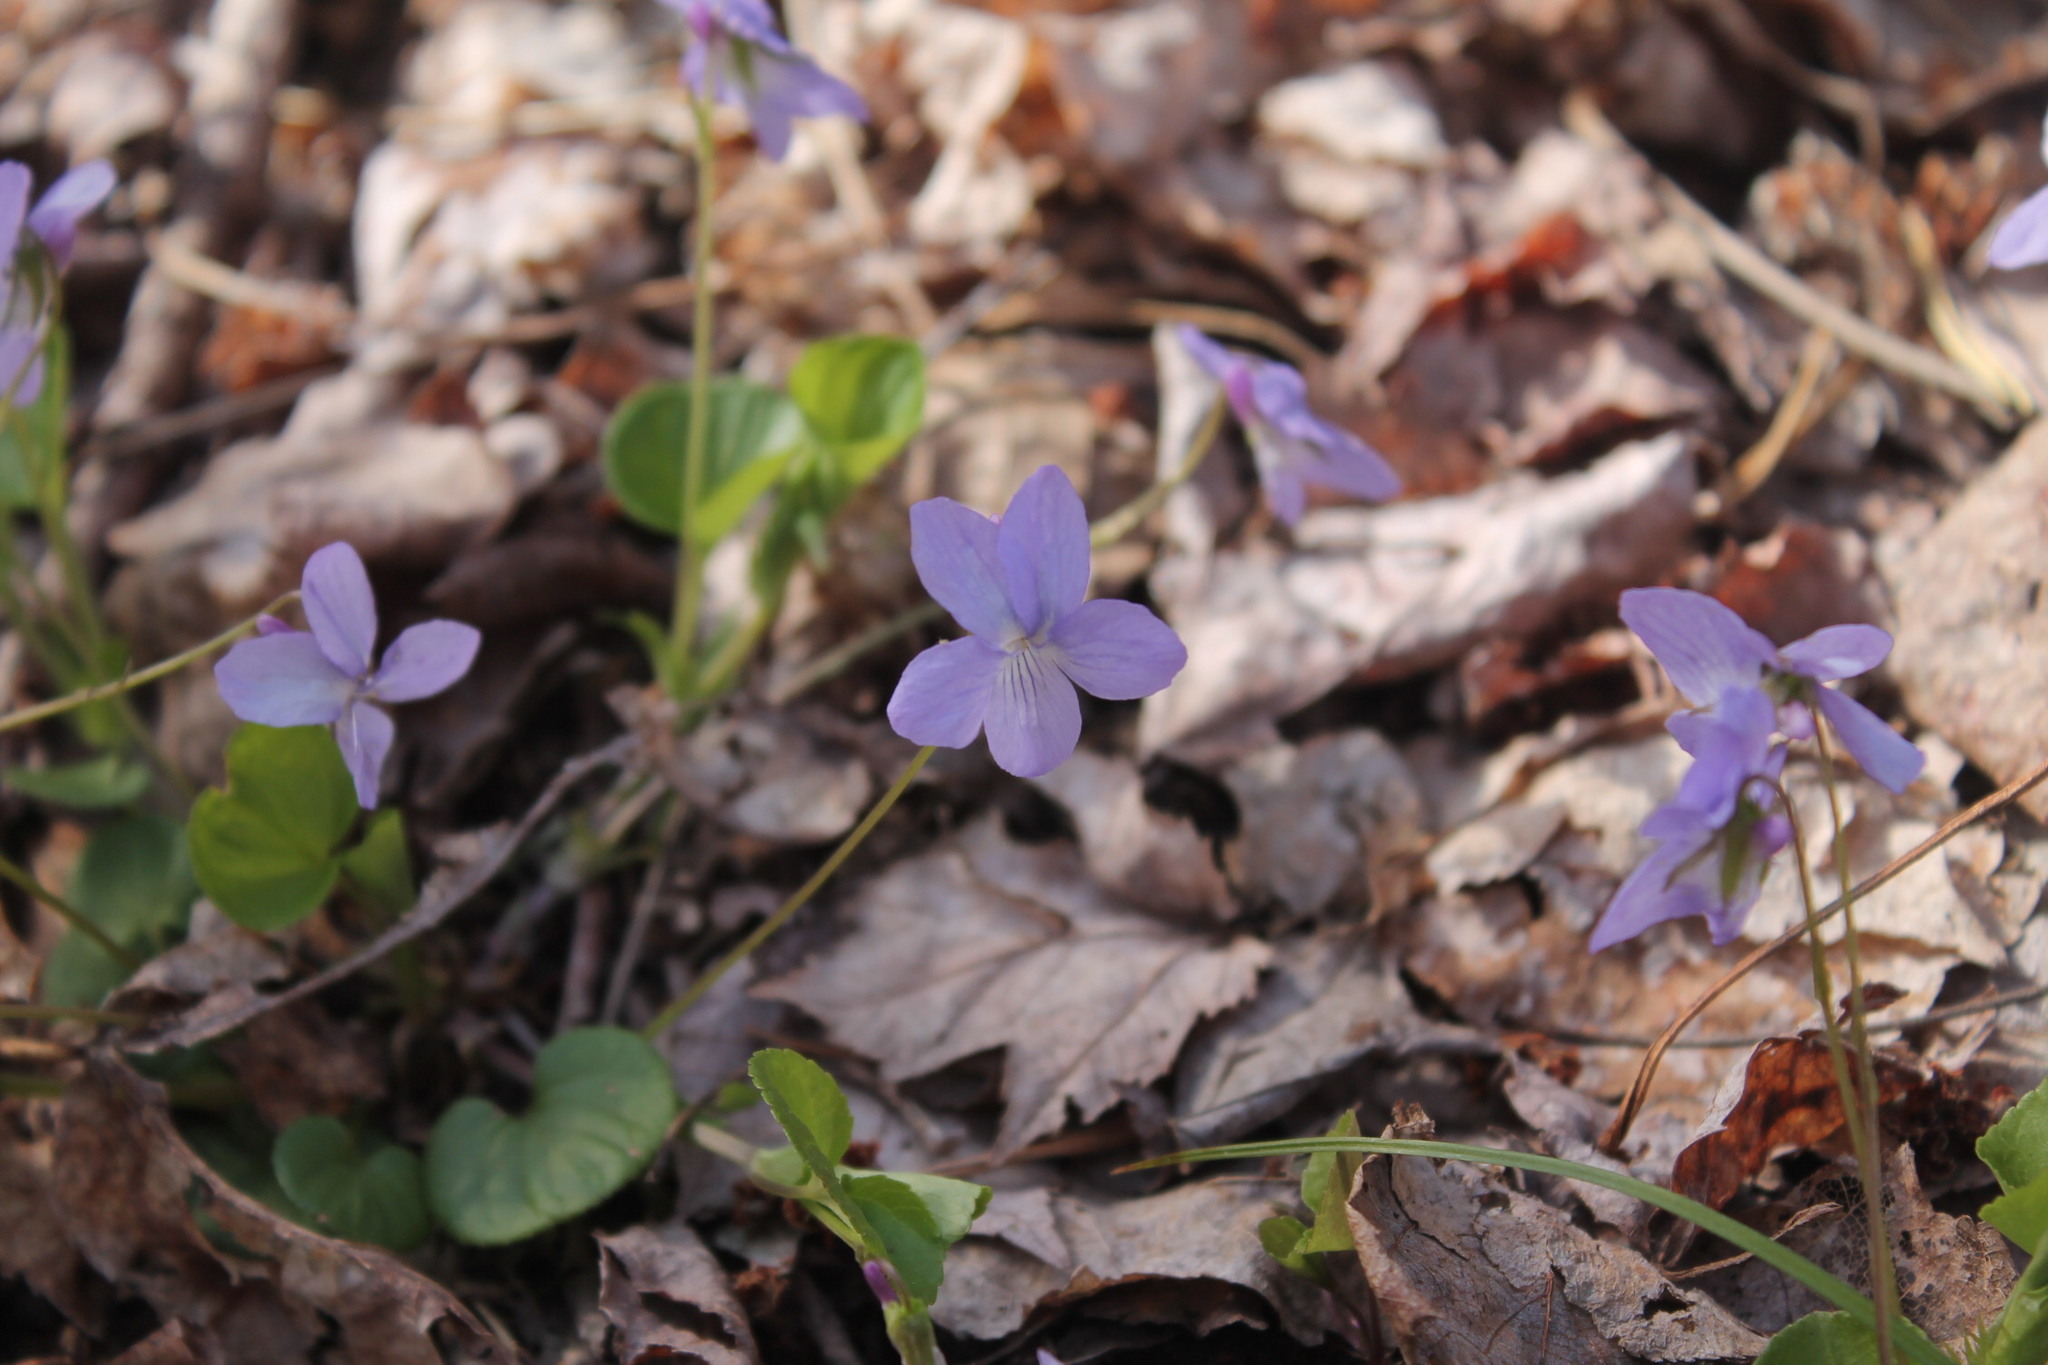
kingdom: Plantae
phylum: Tracheophyta
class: Magnoliopsida
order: Malpighiales
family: Violaceae
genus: Viola
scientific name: Viola labradorica
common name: Labrador violet
